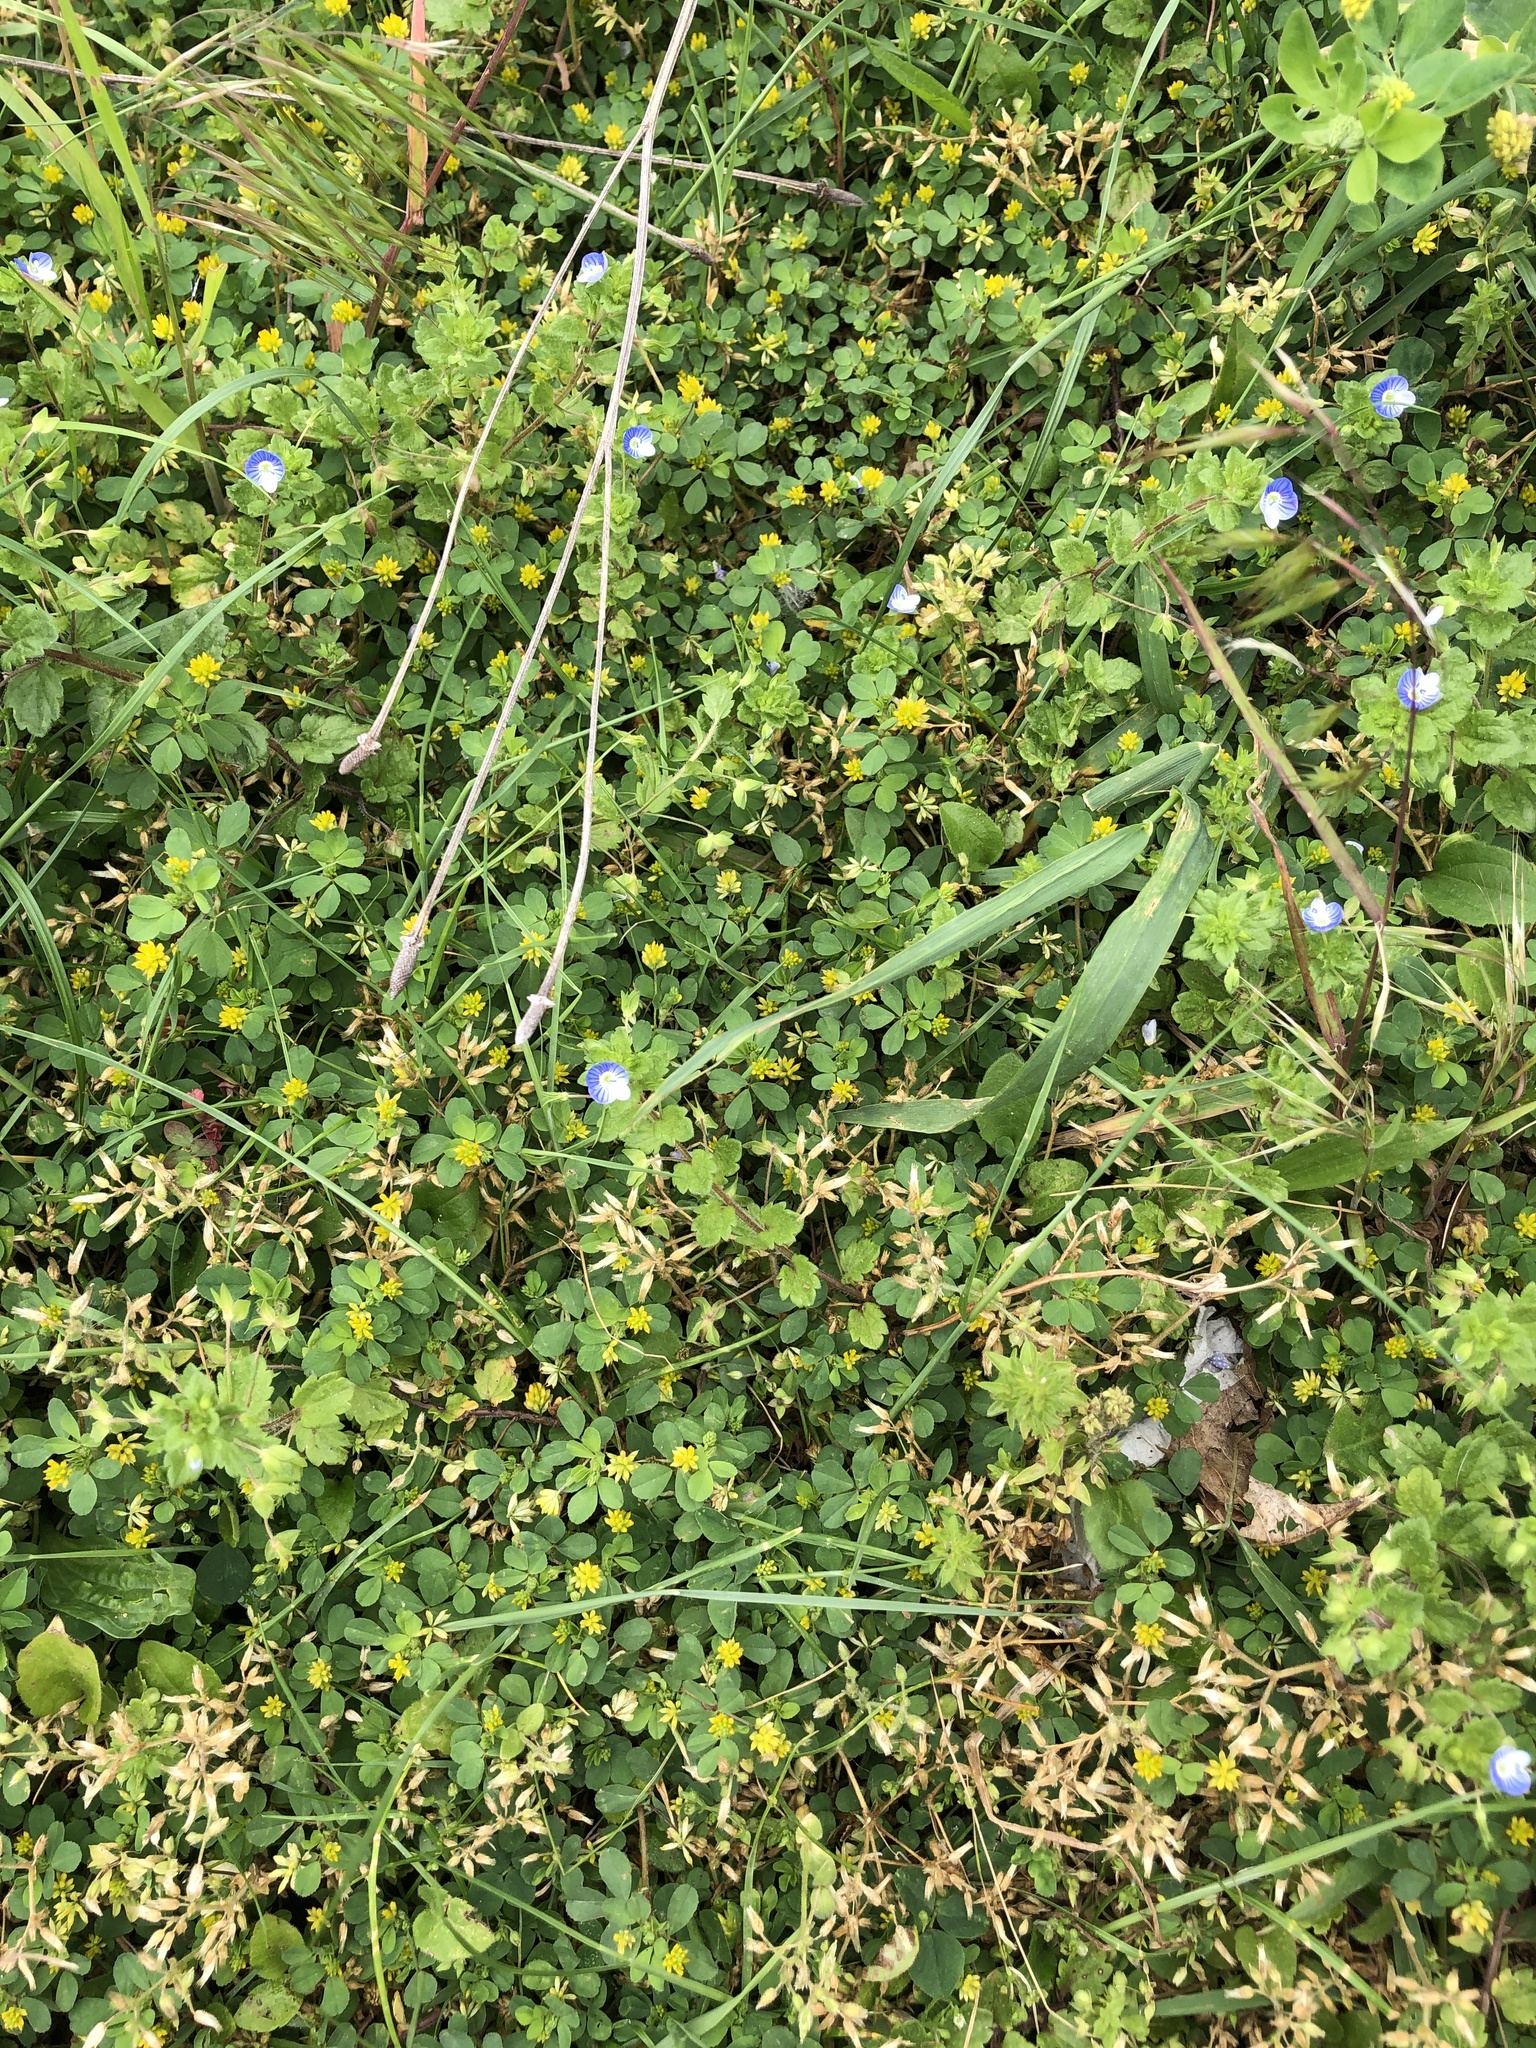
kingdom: Plantae
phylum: Tracheophyta
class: Magnoliopsida
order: Fabales
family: Fabaceae
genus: Trifolium
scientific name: Trifolium dubium
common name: Suckling clover
